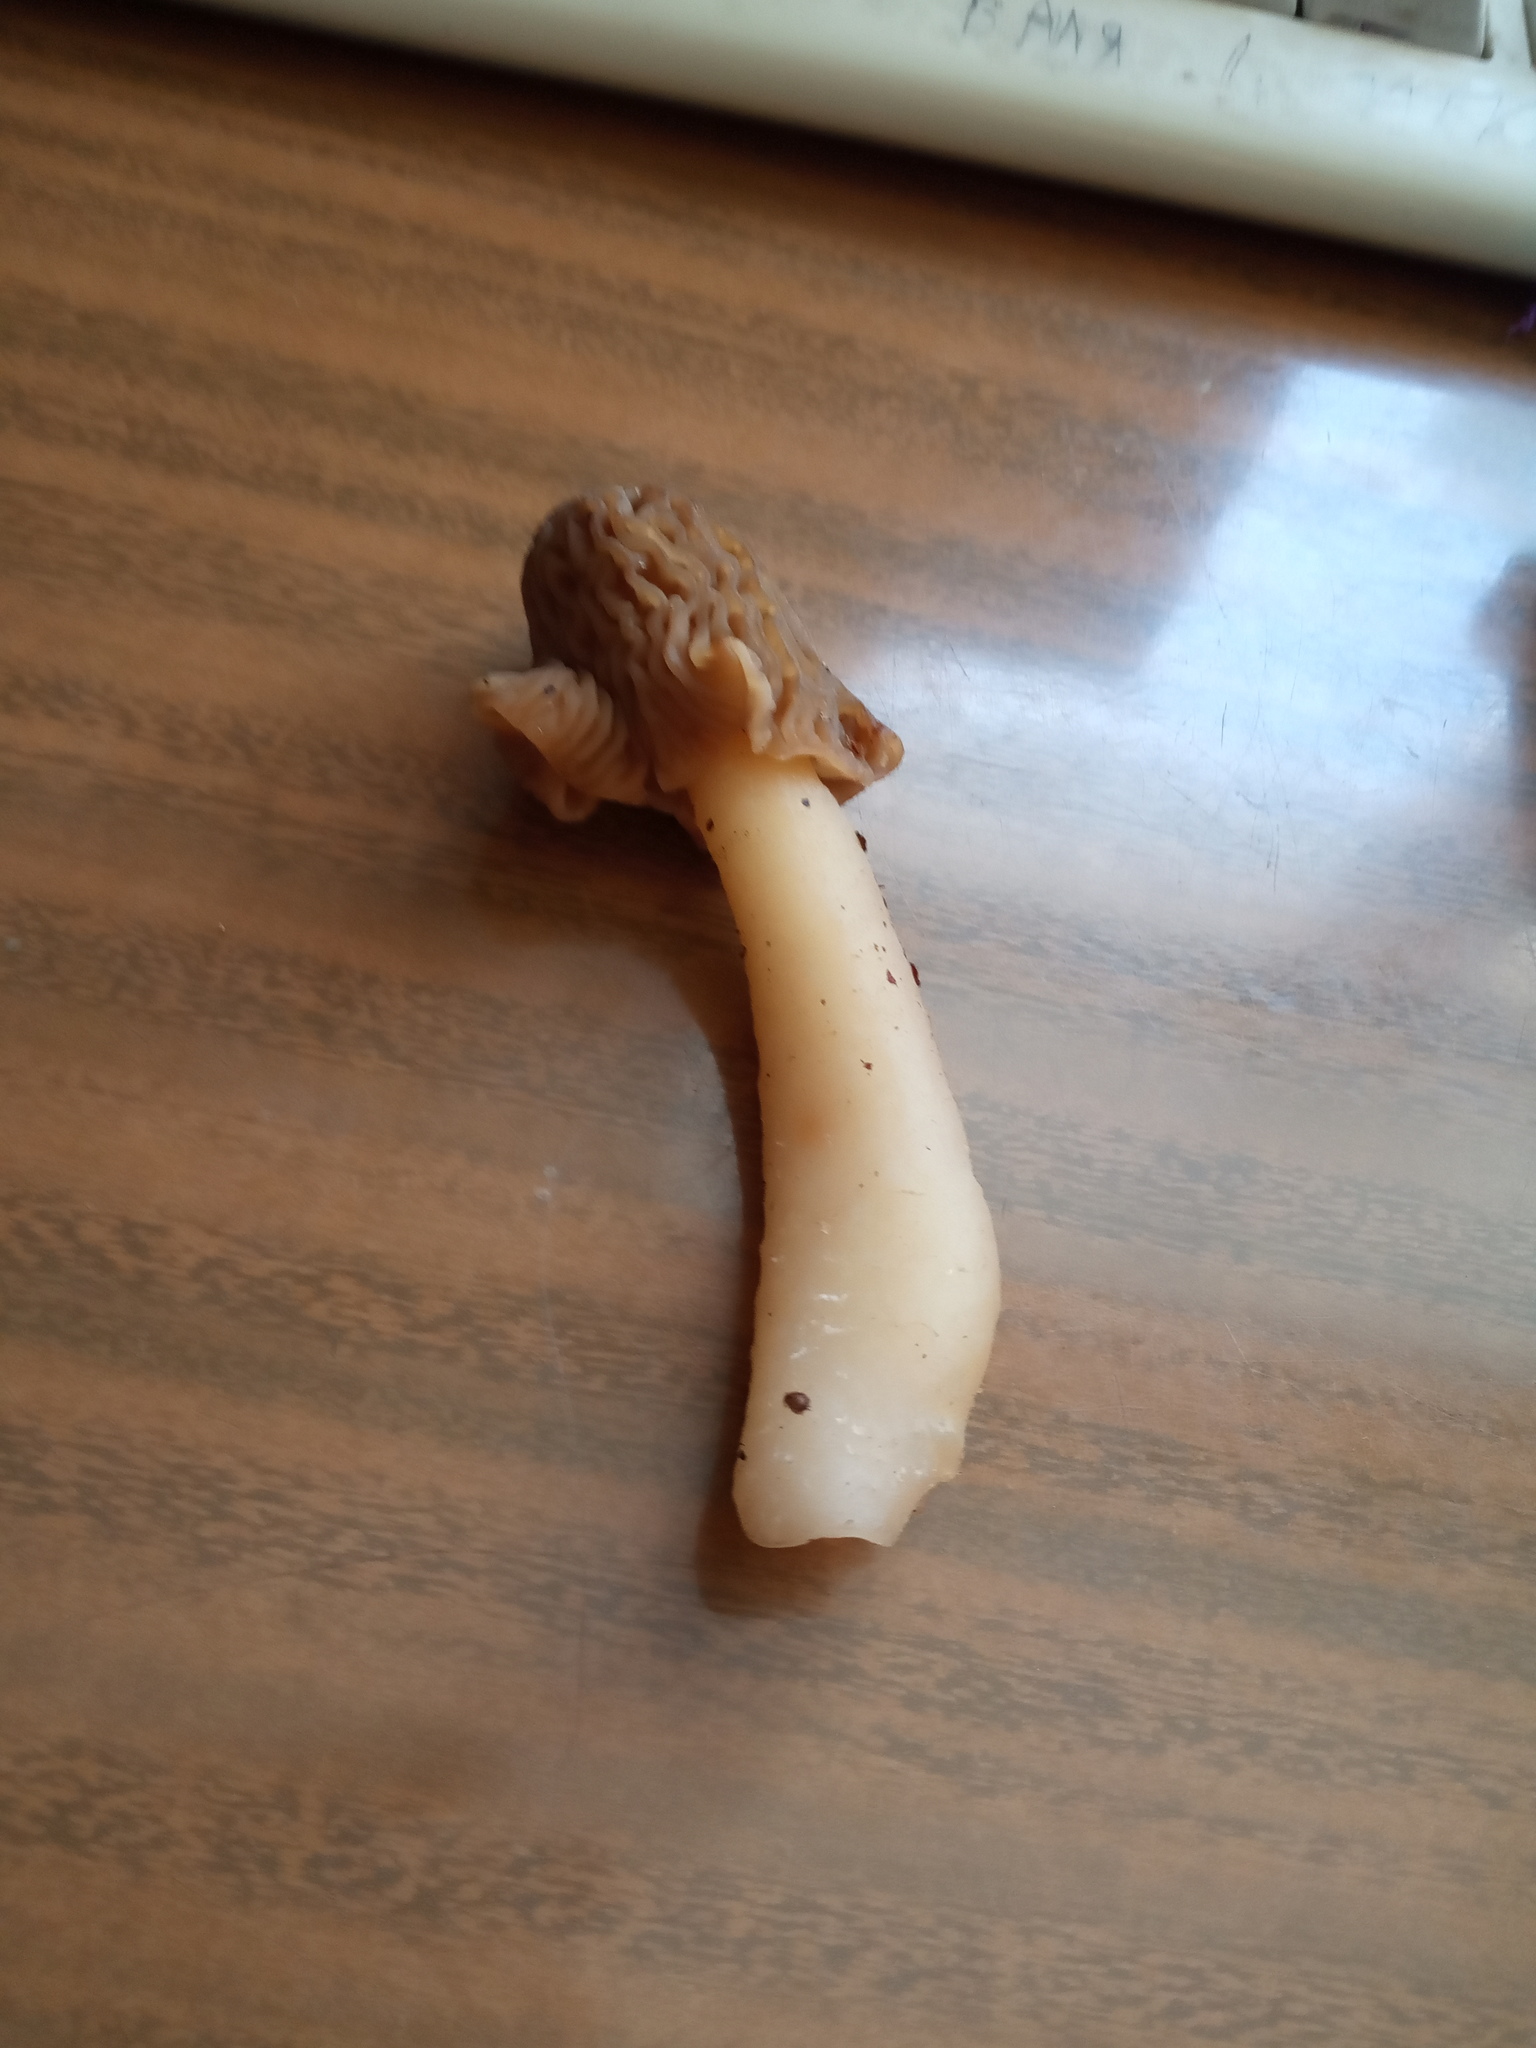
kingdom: Fungi
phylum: Ascomycota
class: Pezizomycetes
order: Pezizales
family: Morchellaceae
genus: Verpa
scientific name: Verpa bohemica
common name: Wrinkled thimble morel
